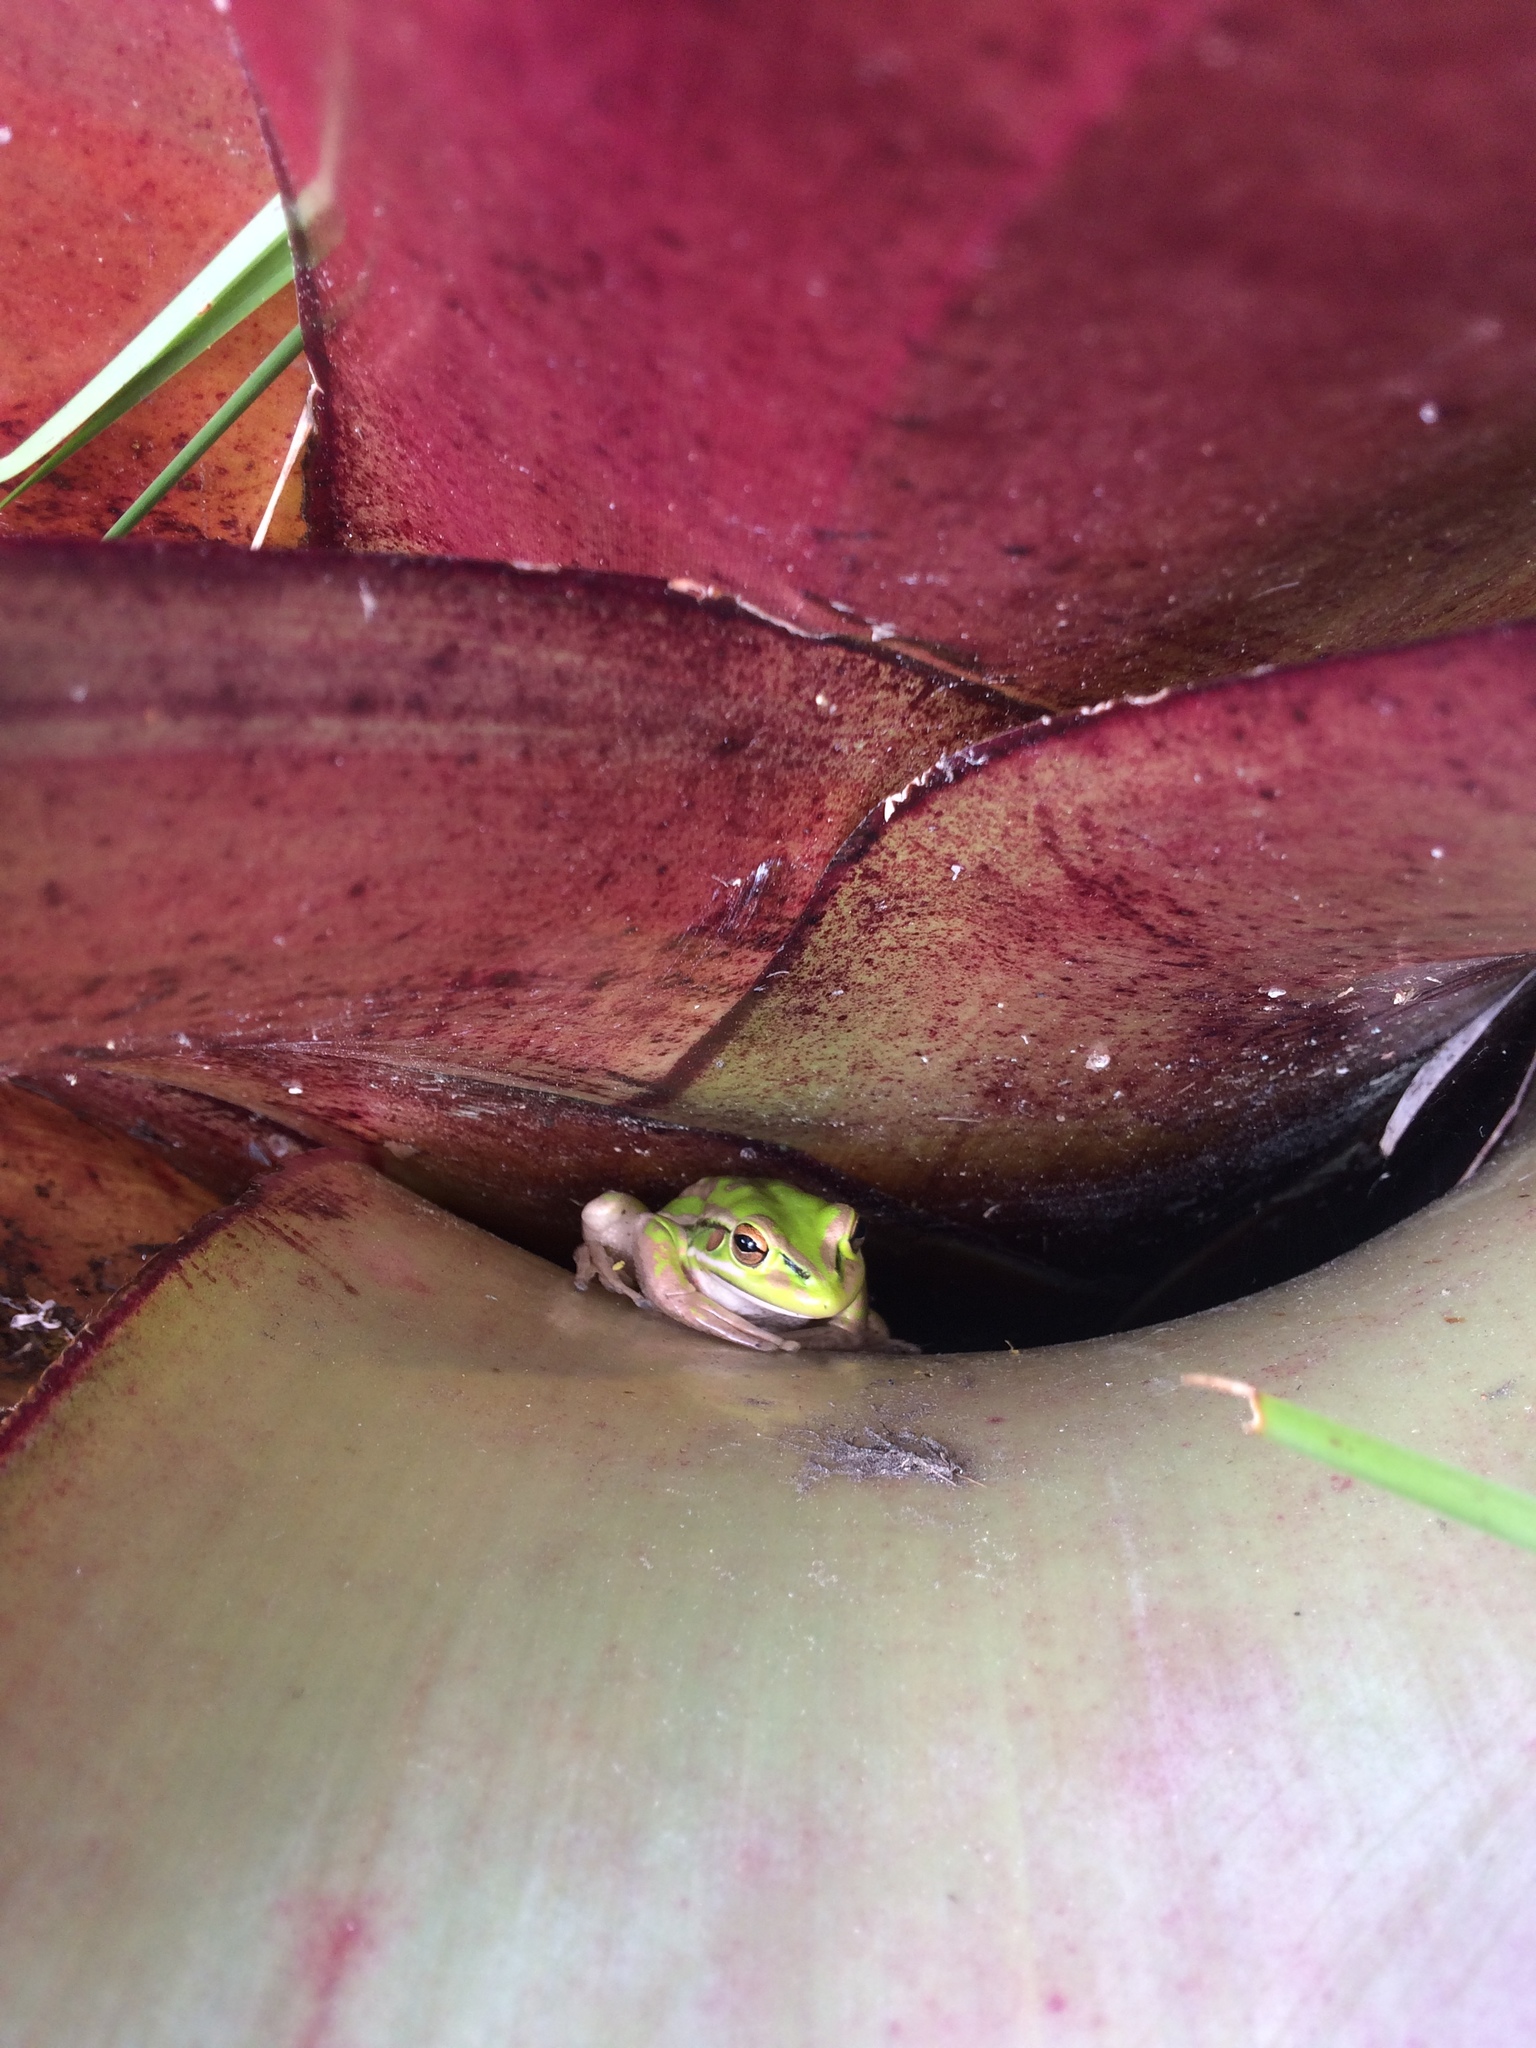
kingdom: Animalia
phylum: Chordata
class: Amphibia
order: Anura
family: Pelodryadidae
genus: Ranoidea
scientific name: Ranoidea aurea
